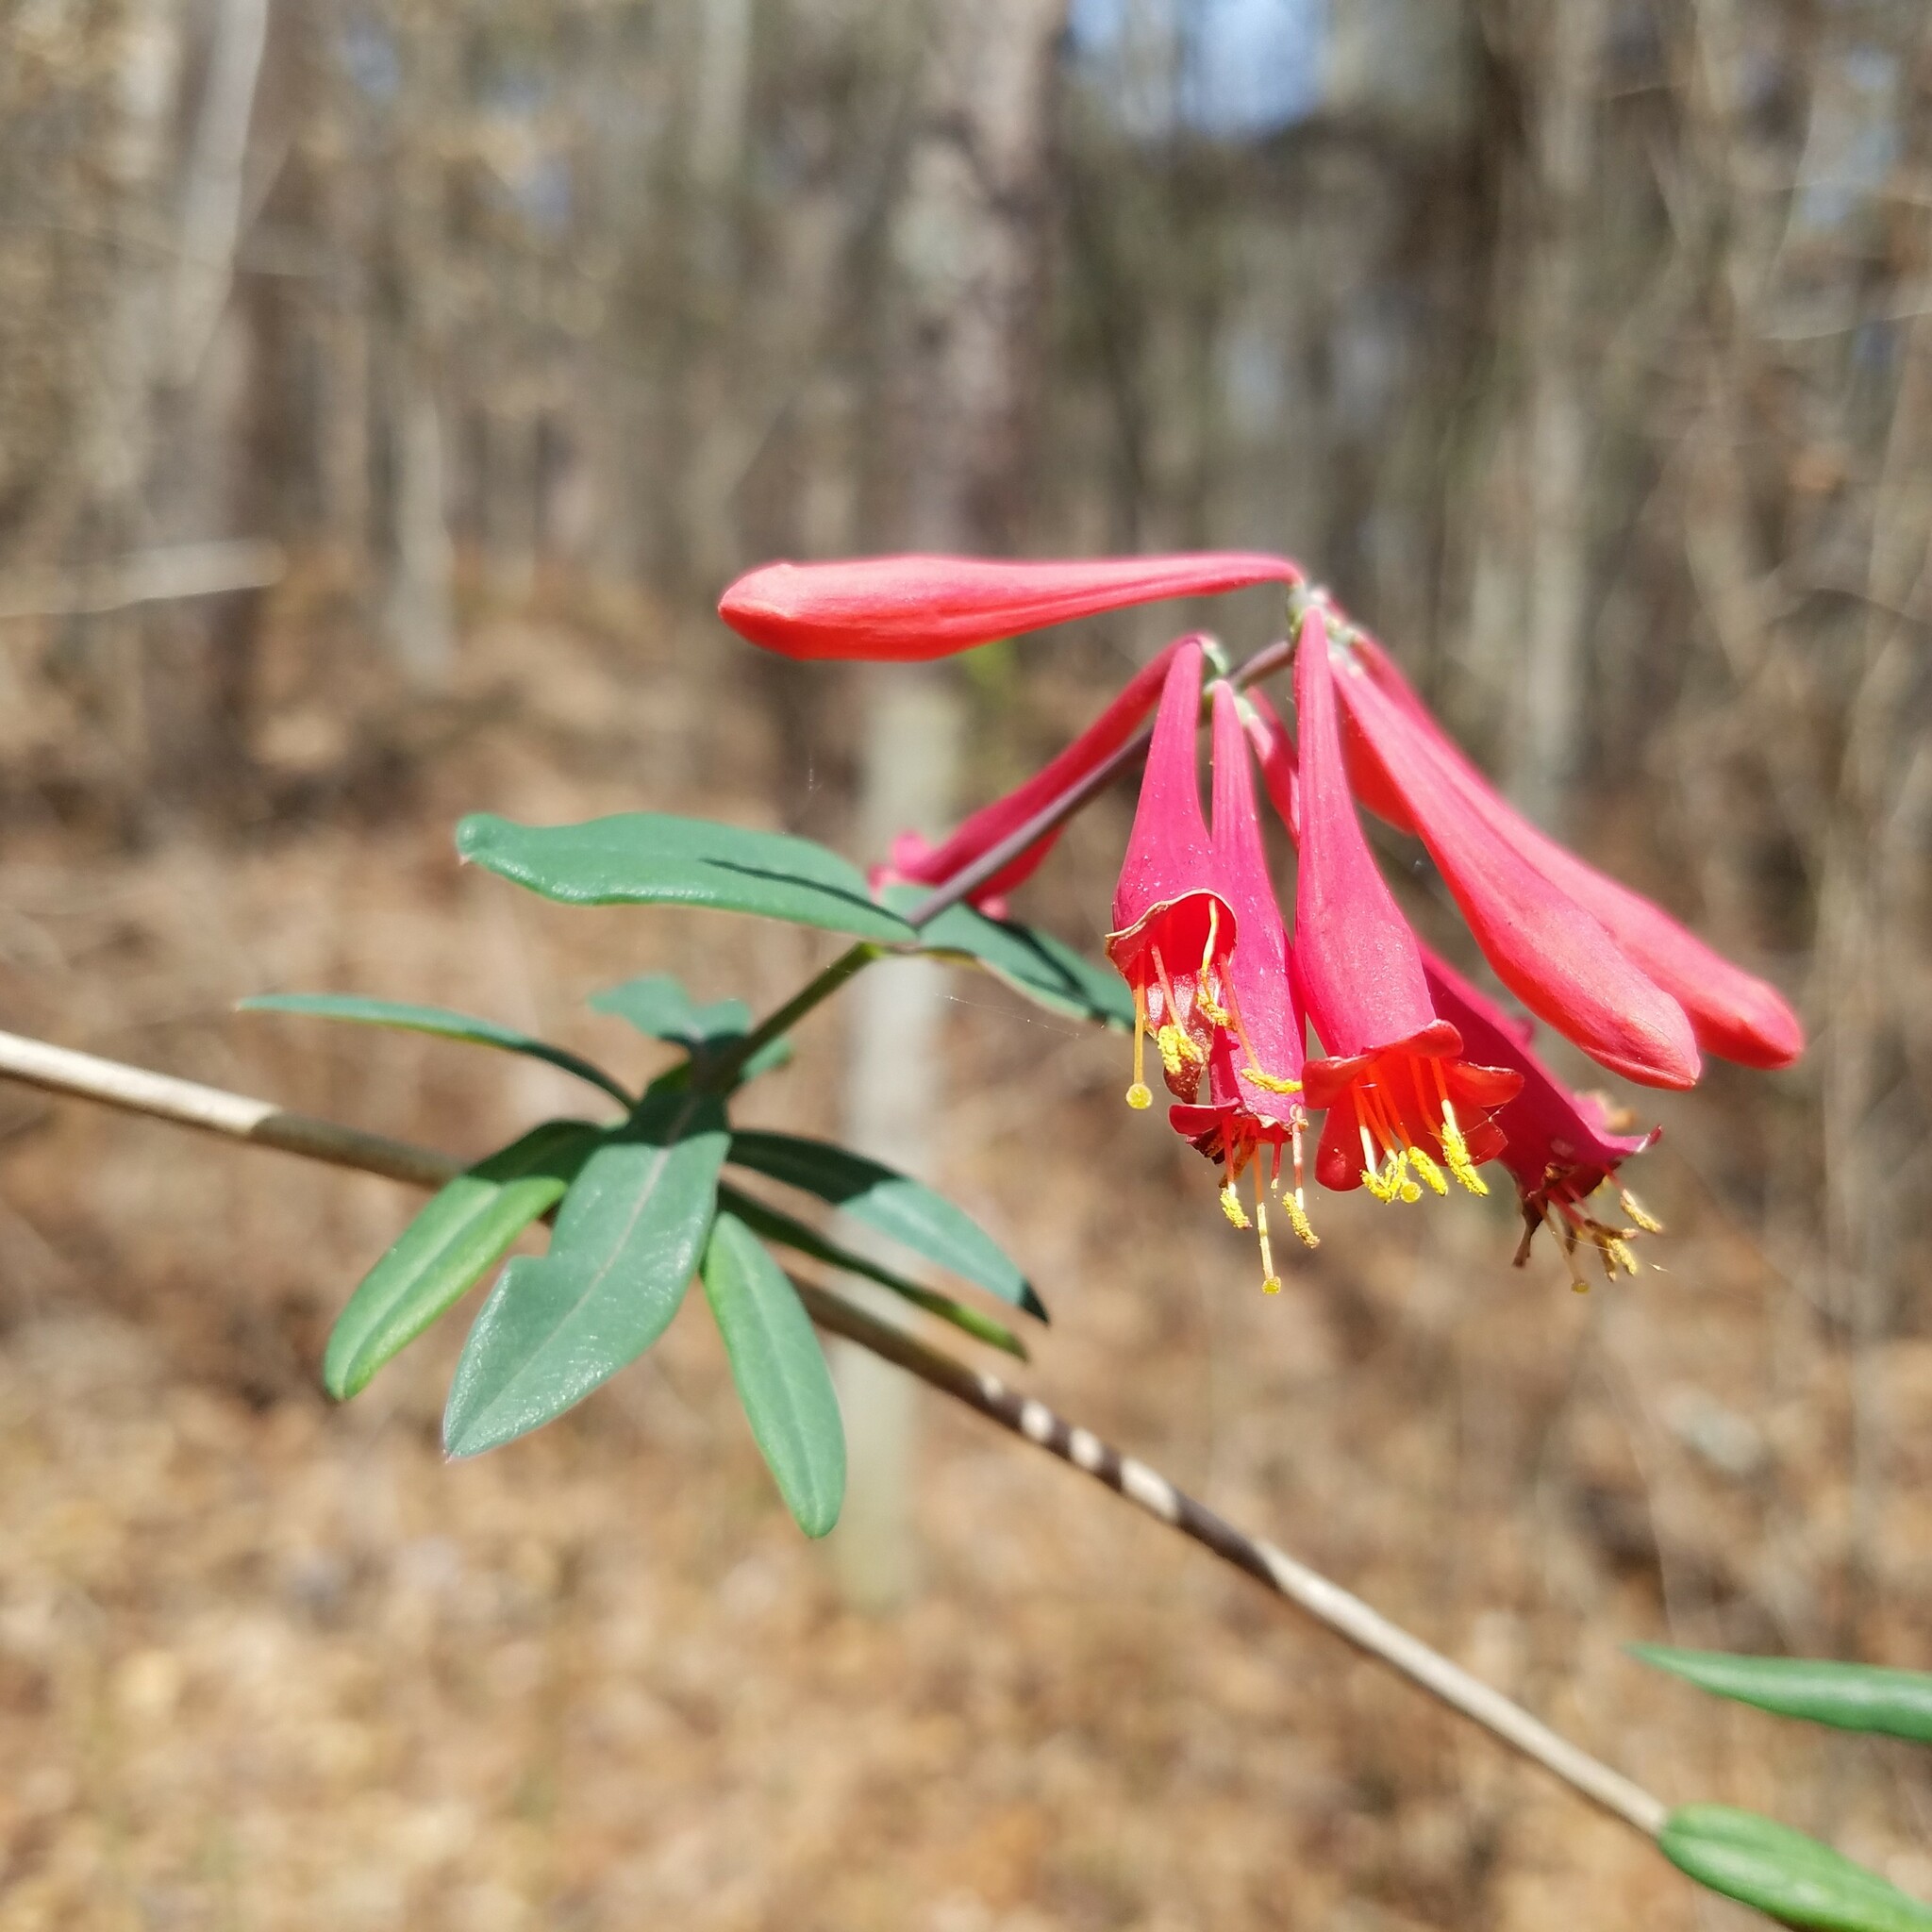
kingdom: Plantae
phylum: Tracheophyta
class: Magnoliopsida
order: Dipsacales
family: Caprifoliaceae
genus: Lonicera
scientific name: Lonicera sempervirens
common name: Coral honeysuckle
